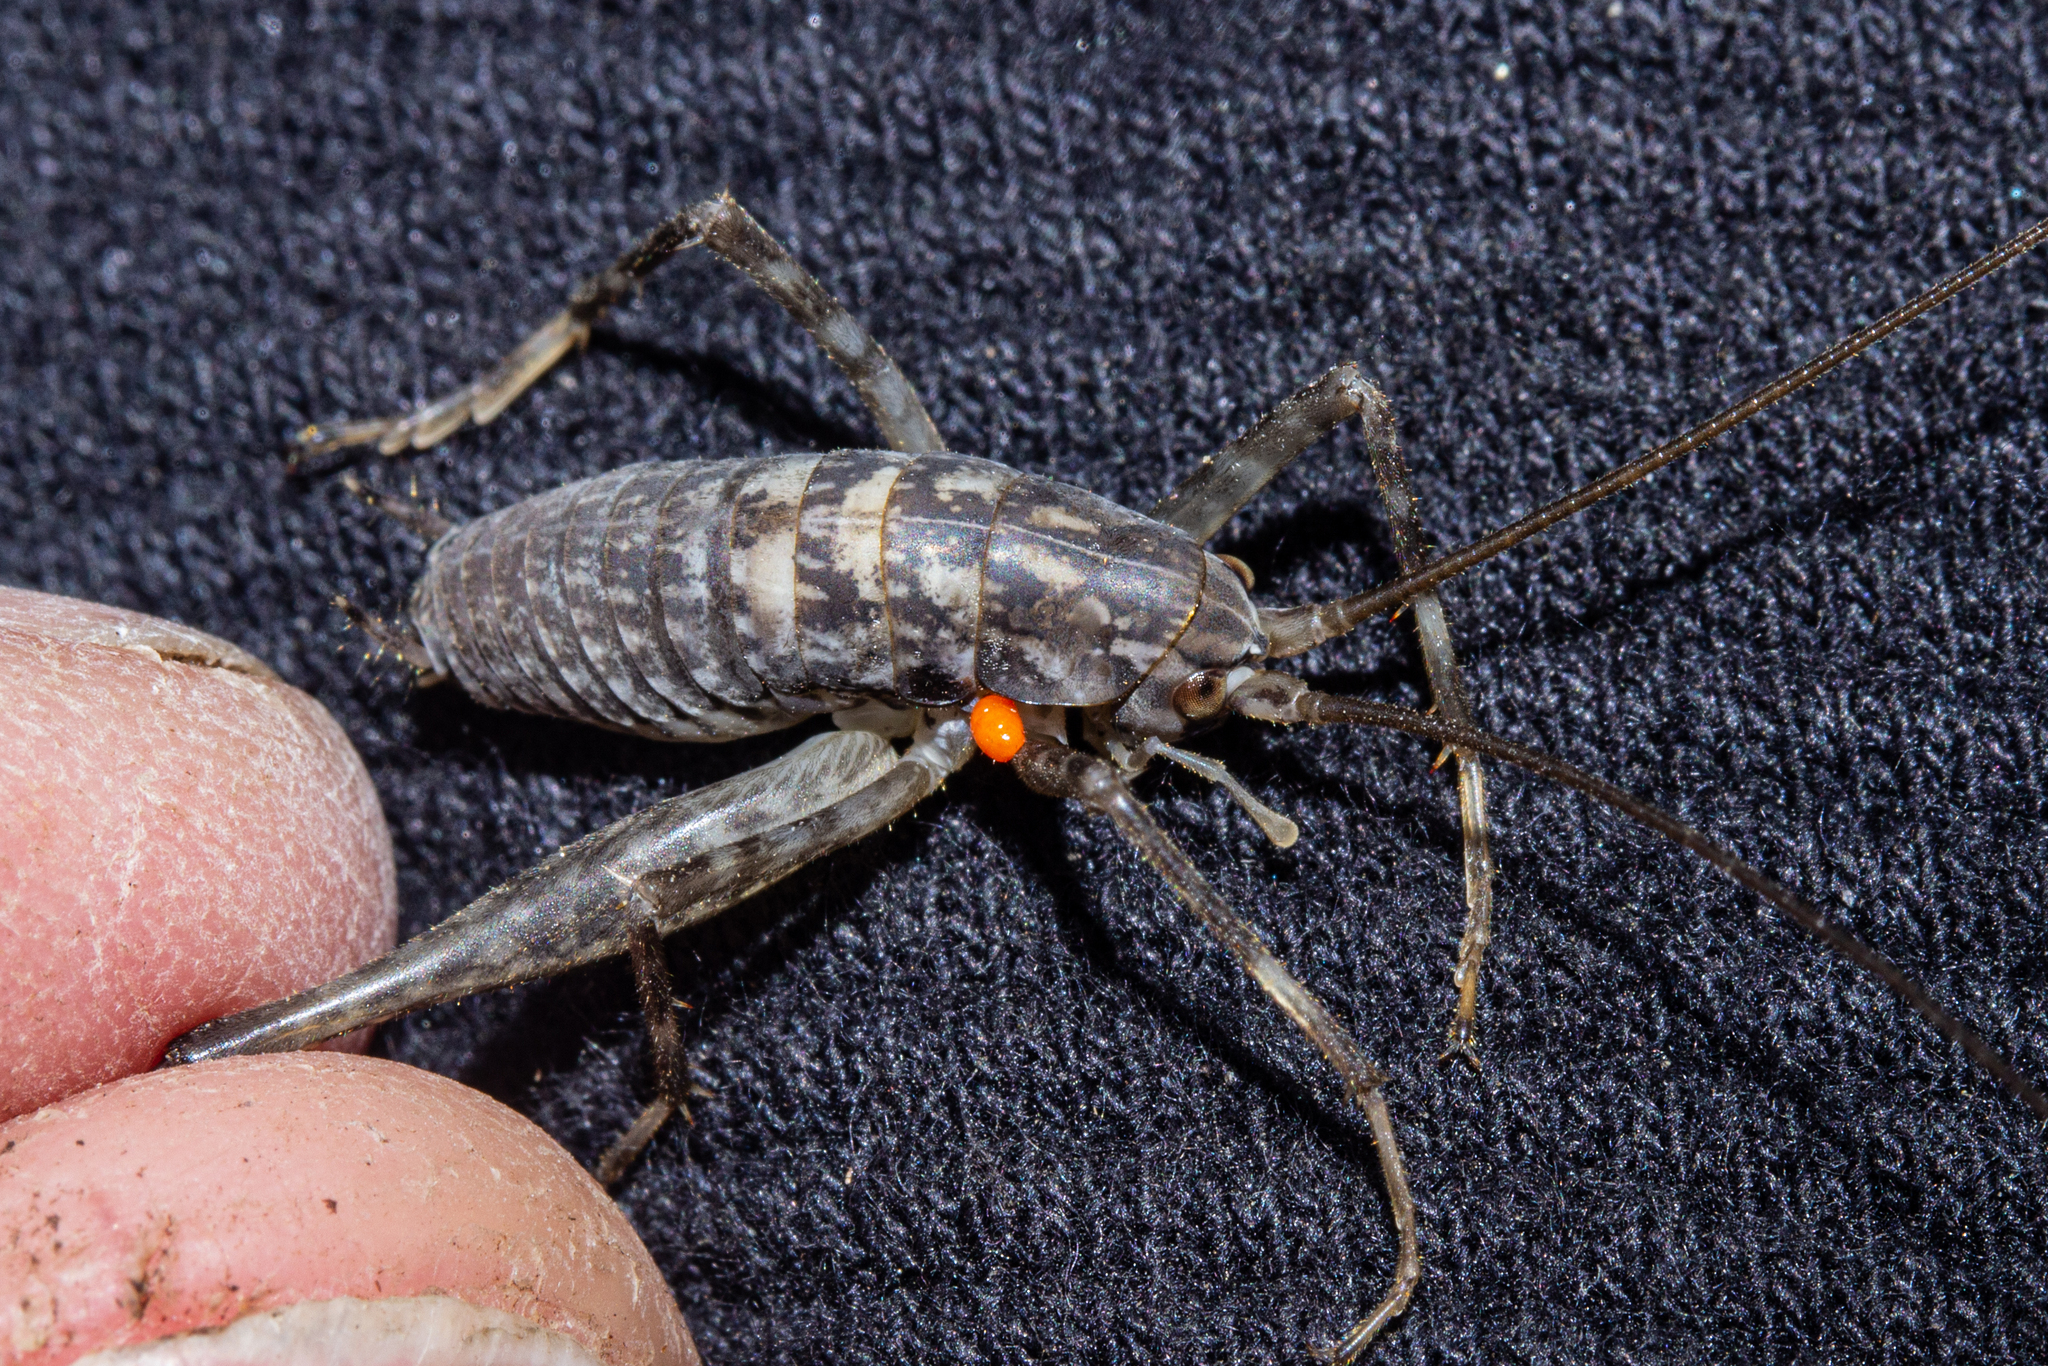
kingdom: Animalia
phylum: Arthropoda
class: Insecta
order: Orthoptera
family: Rhaphidophoridae
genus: Pharmacus
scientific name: Pharmacus cristatus
